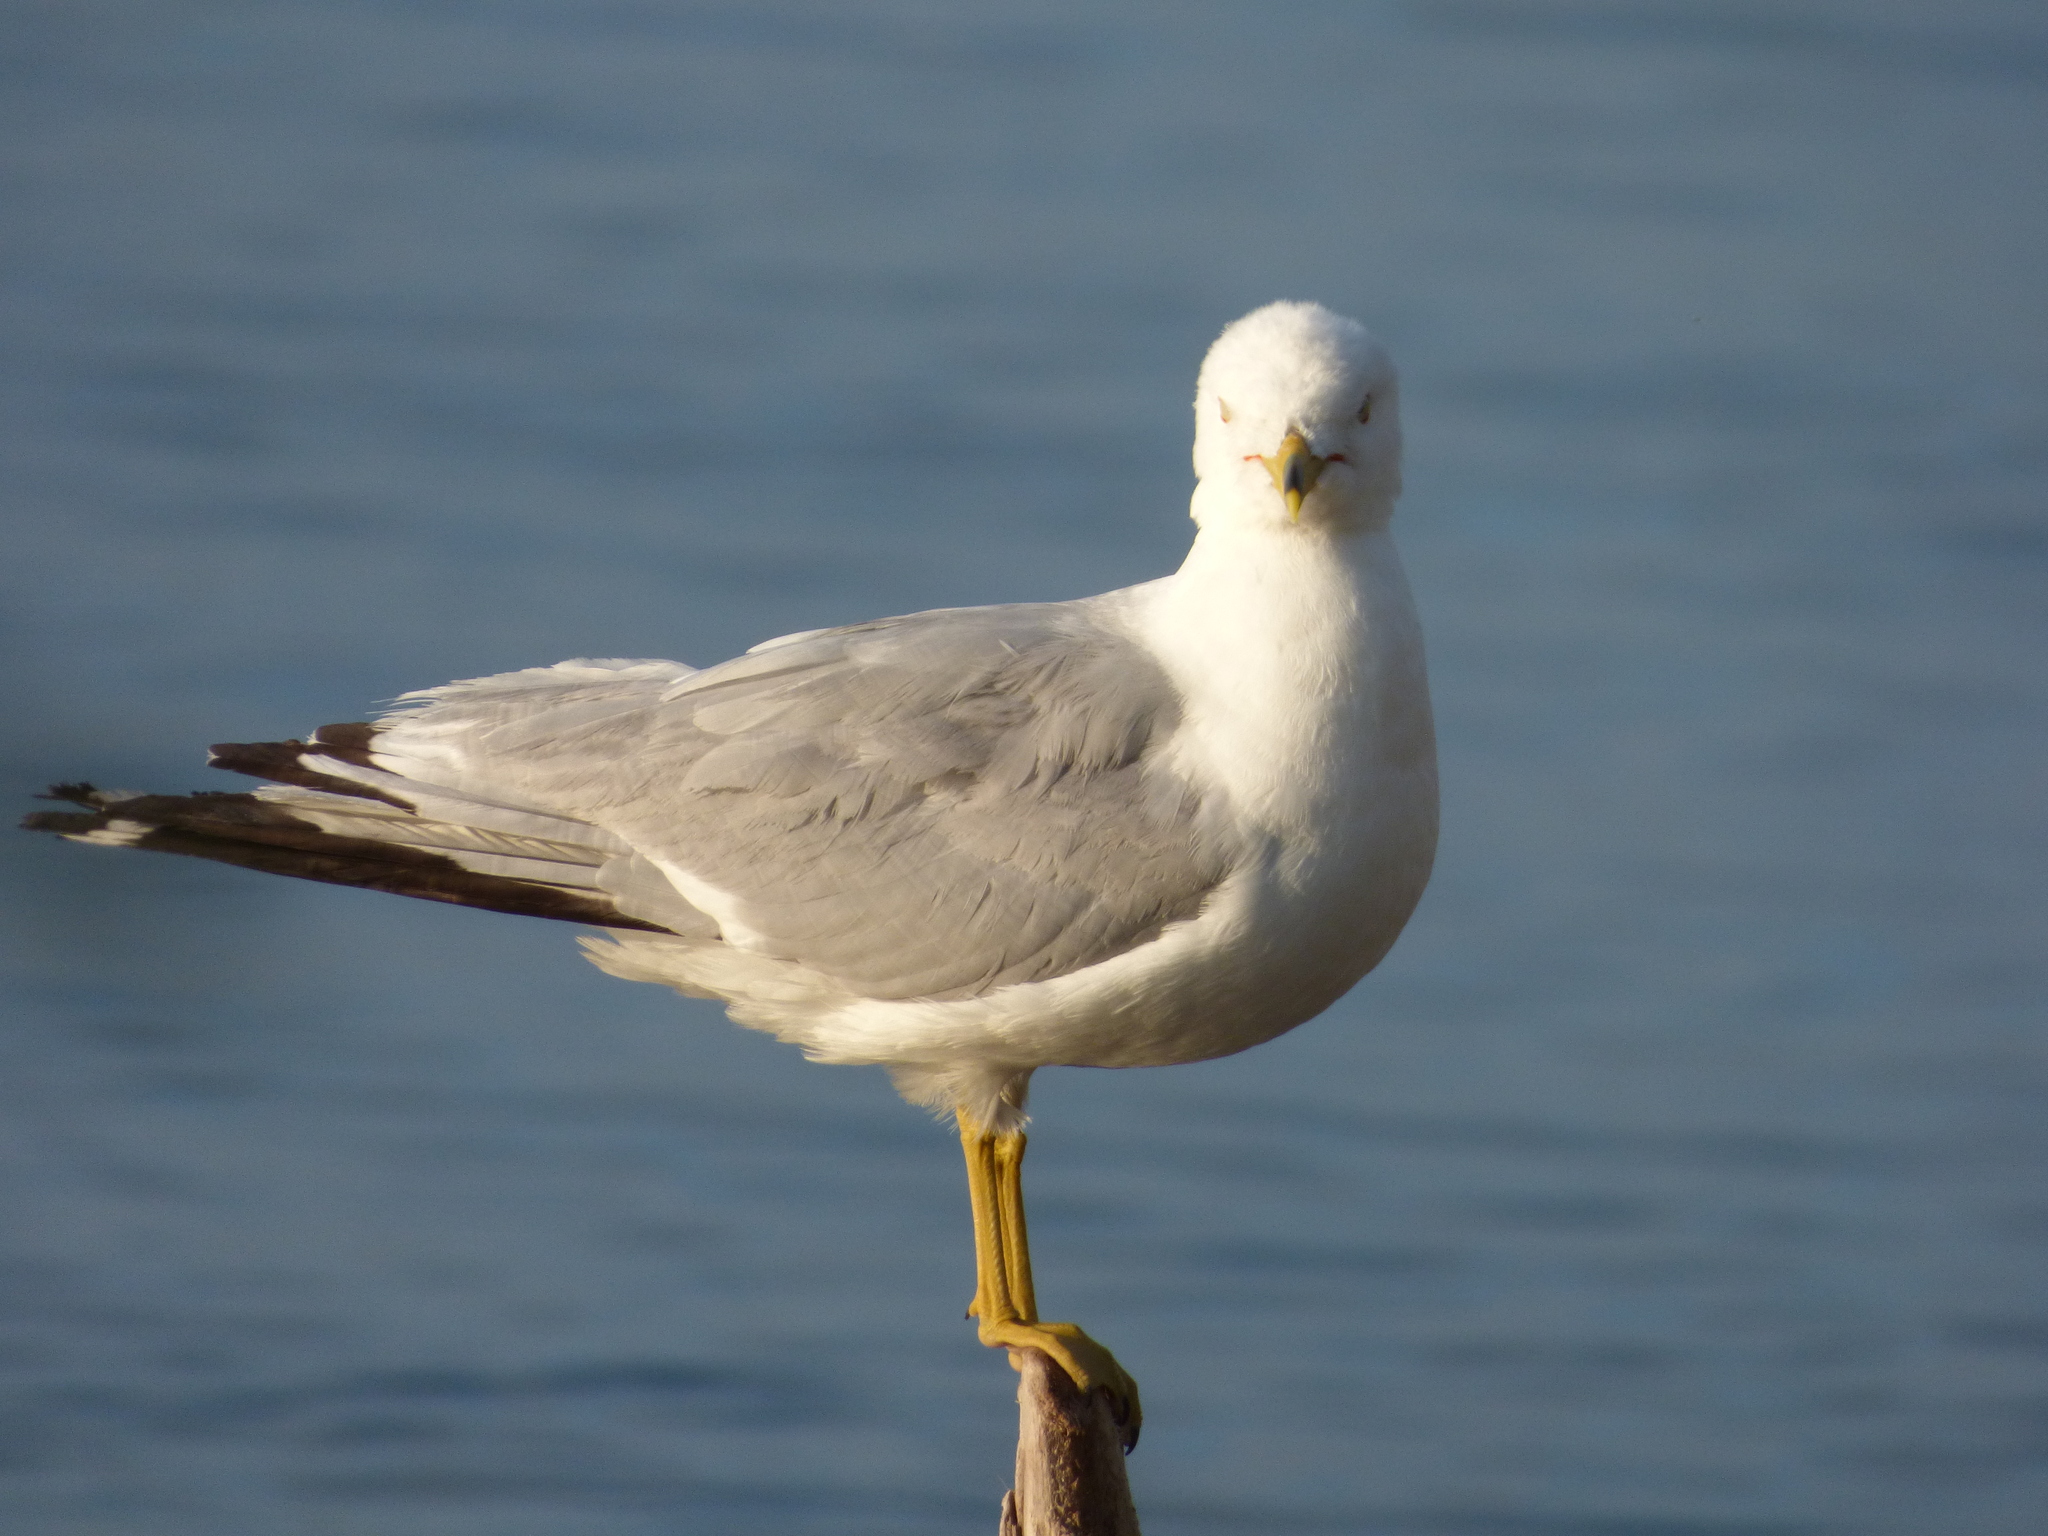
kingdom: Animalia
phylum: Chordata
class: Aves
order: Charadriiformes
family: Laridae
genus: Larus
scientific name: Larus delawarensis
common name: Ring-billed gull
